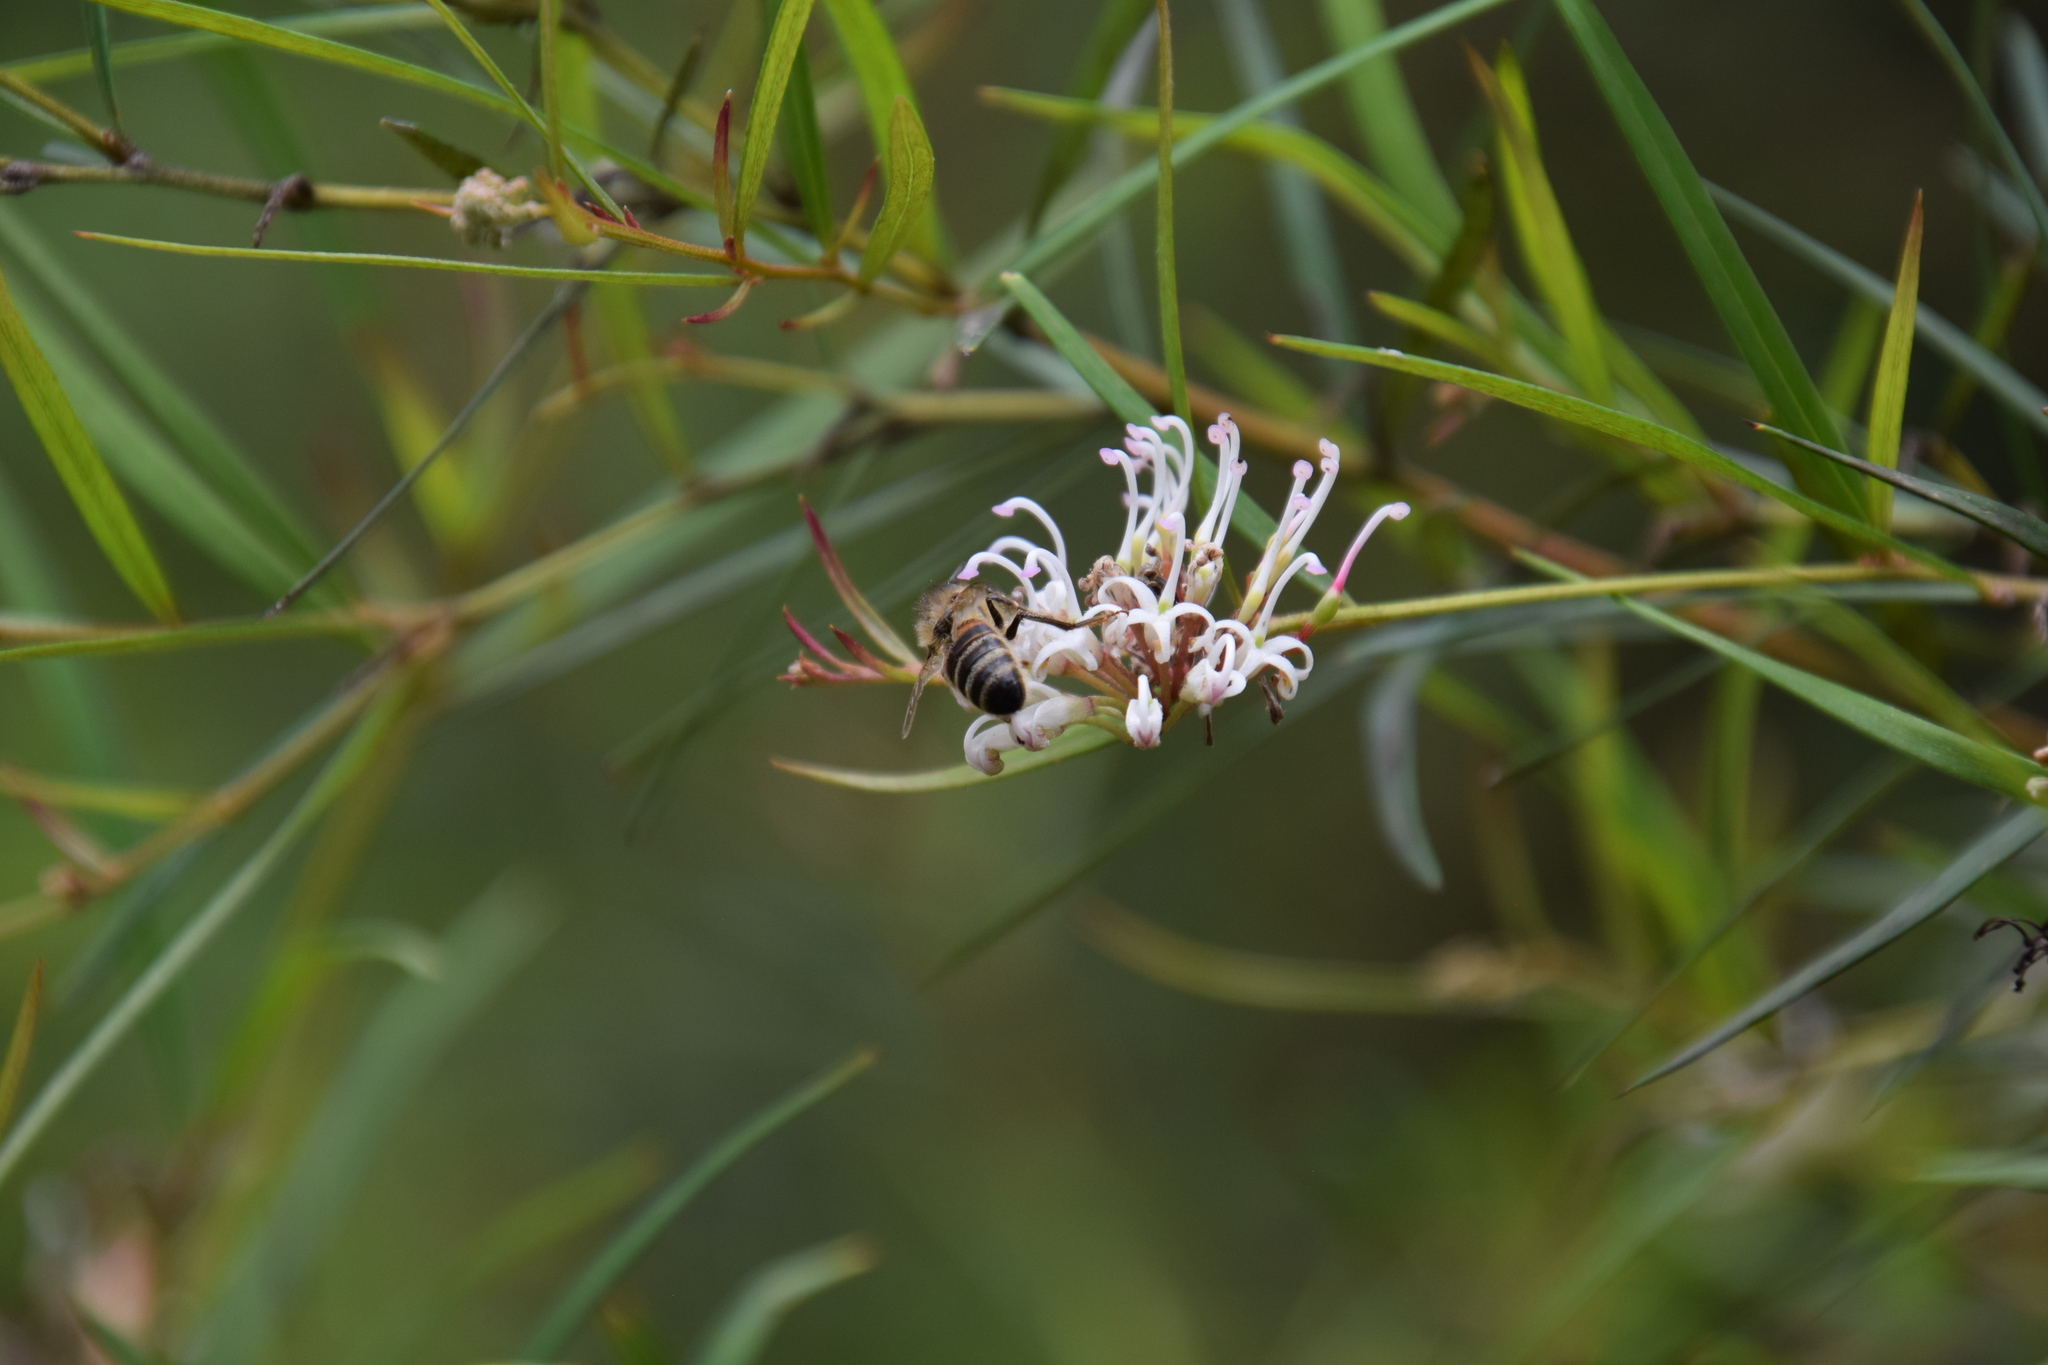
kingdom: Animalia
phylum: Arthropoda
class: Insecta
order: Hymenoptera
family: Apidae
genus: Apis
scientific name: Apis mellifera
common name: Honey bee
